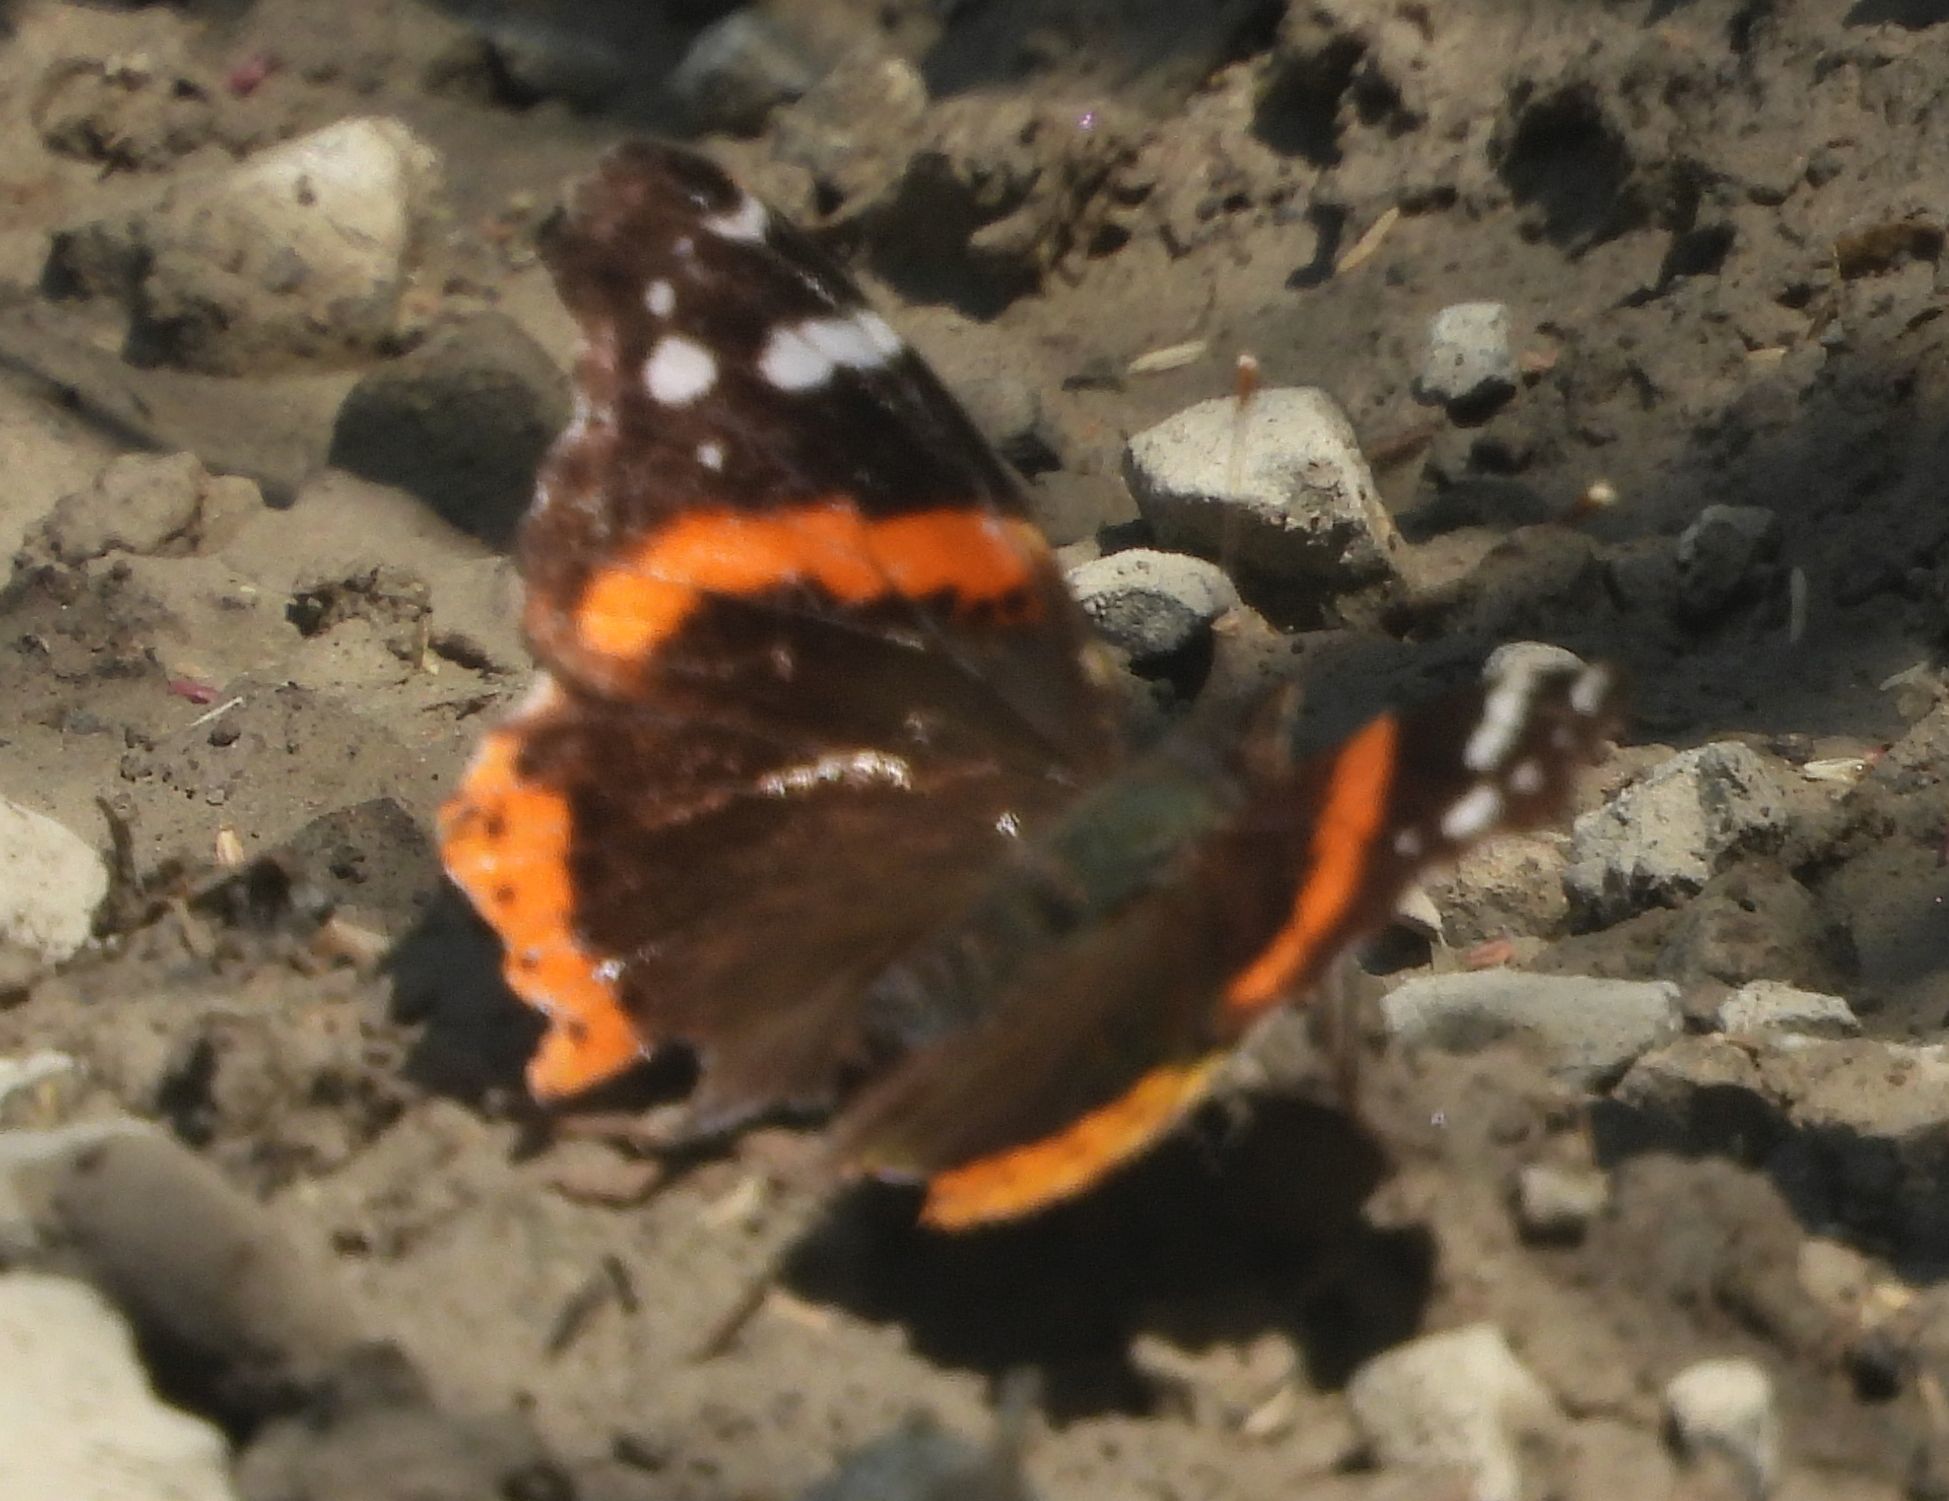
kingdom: Animalia
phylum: Arthropoda
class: Insecta
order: Lepidoptera
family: Nymphalidae
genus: Vanessa
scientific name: Vanessa atalanta
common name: Red admiral
